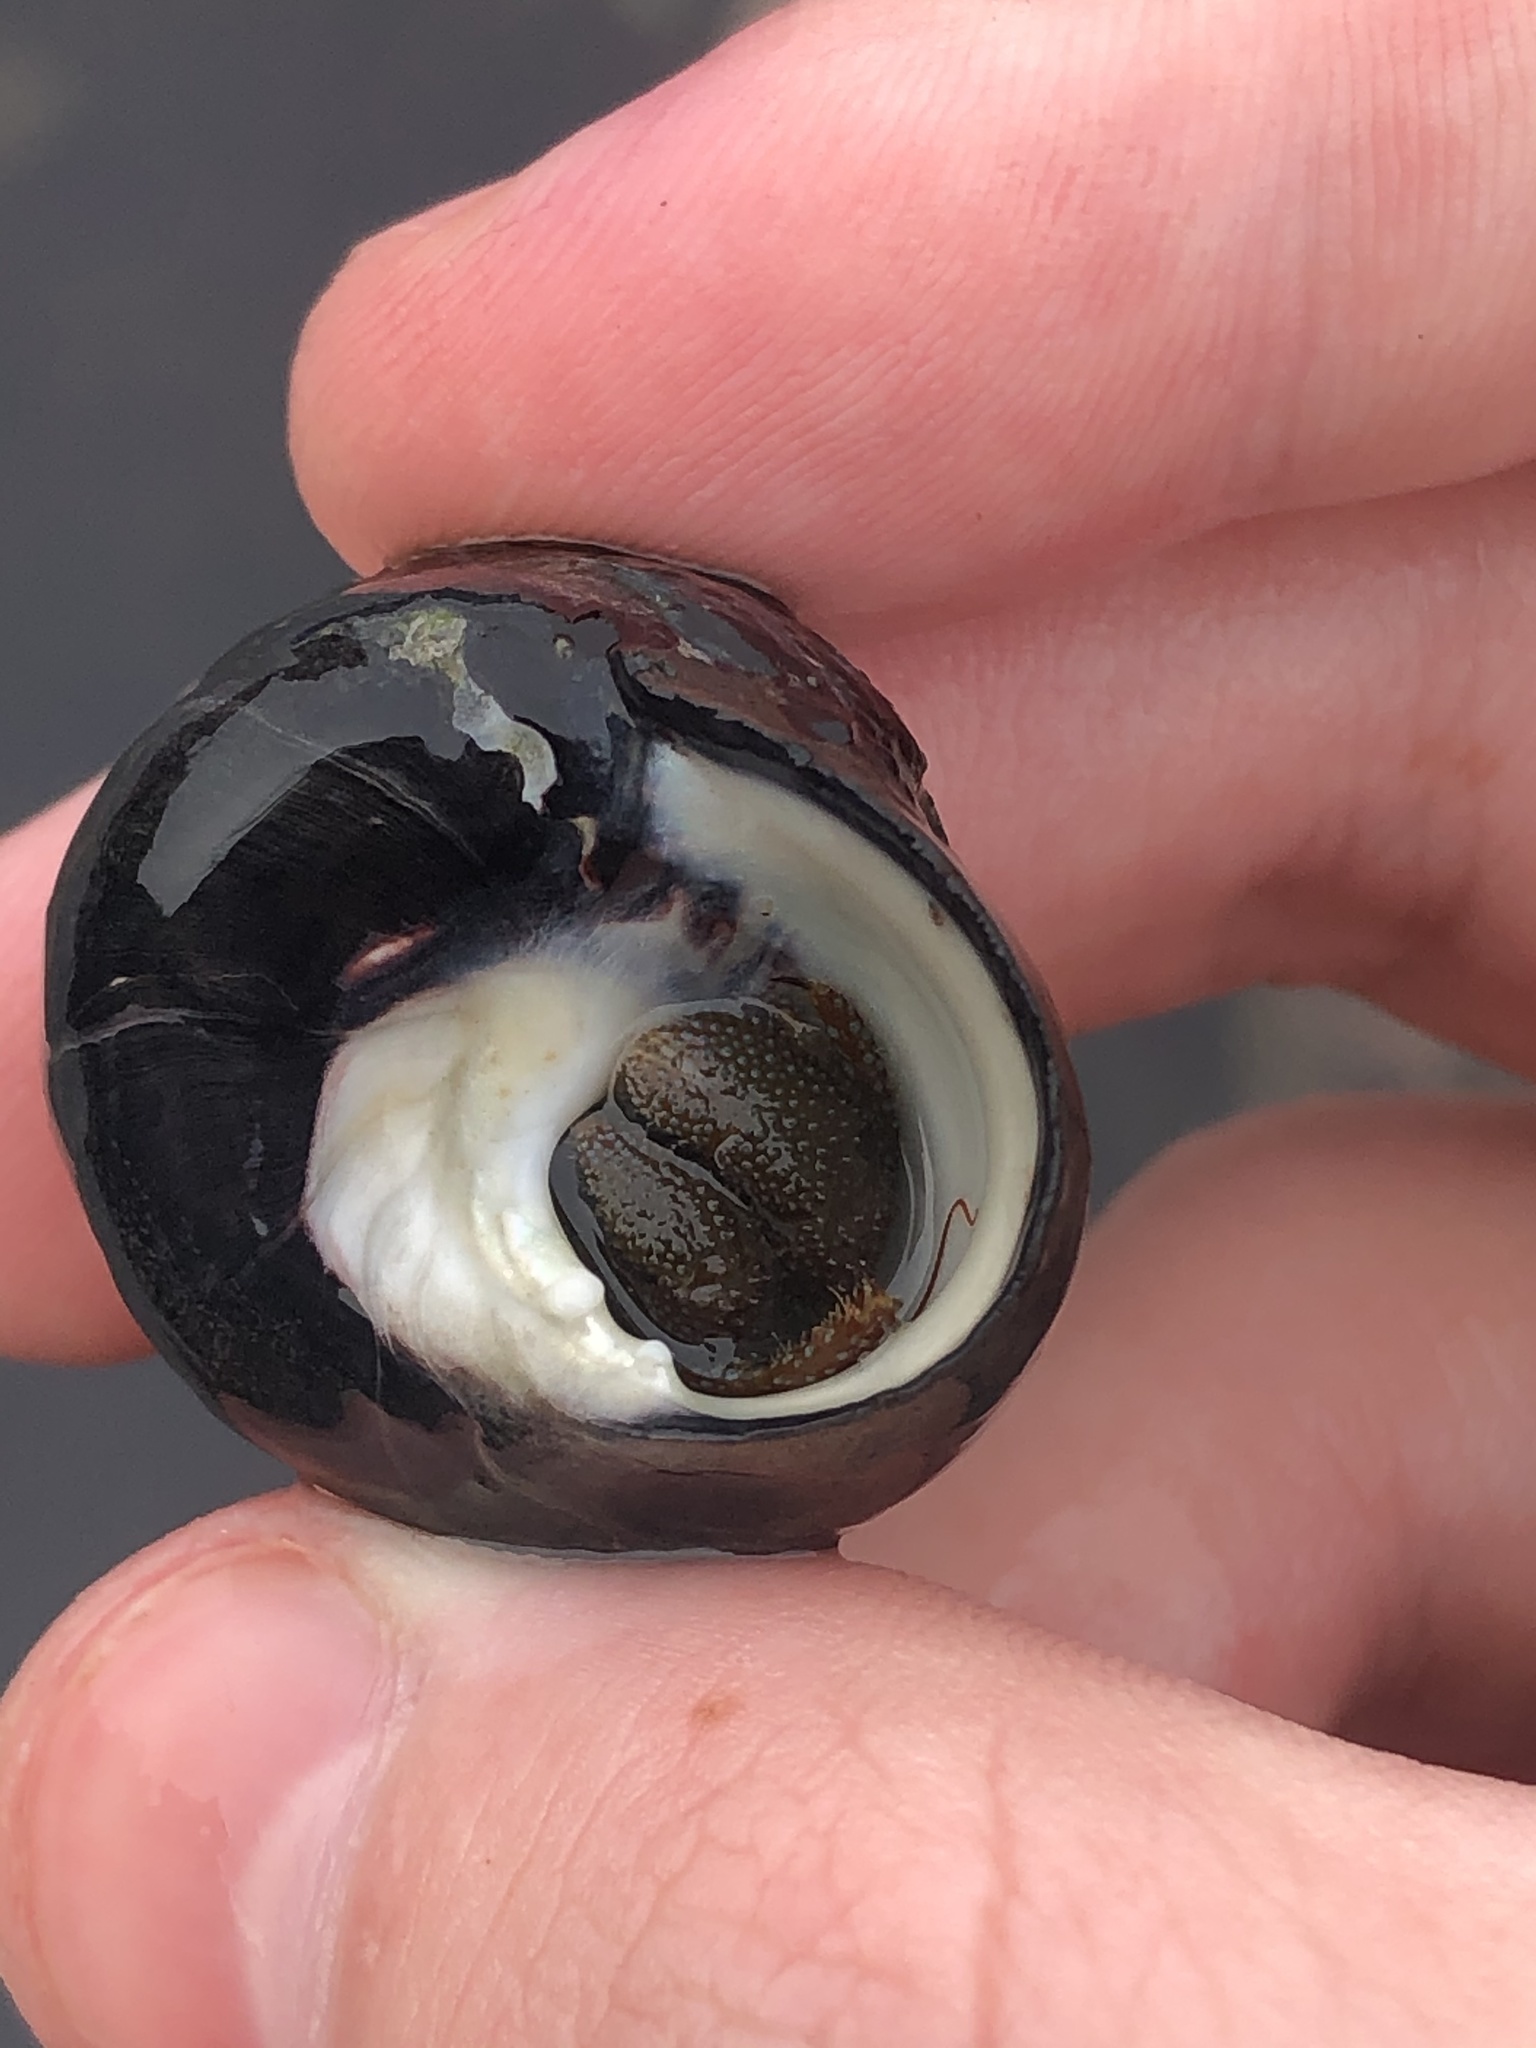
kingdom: Animalia
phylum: Arthropoda
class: Malacostraca
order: Decapoda
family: Paguridae
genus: Pagurus
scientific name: Pagurus granosimanus
